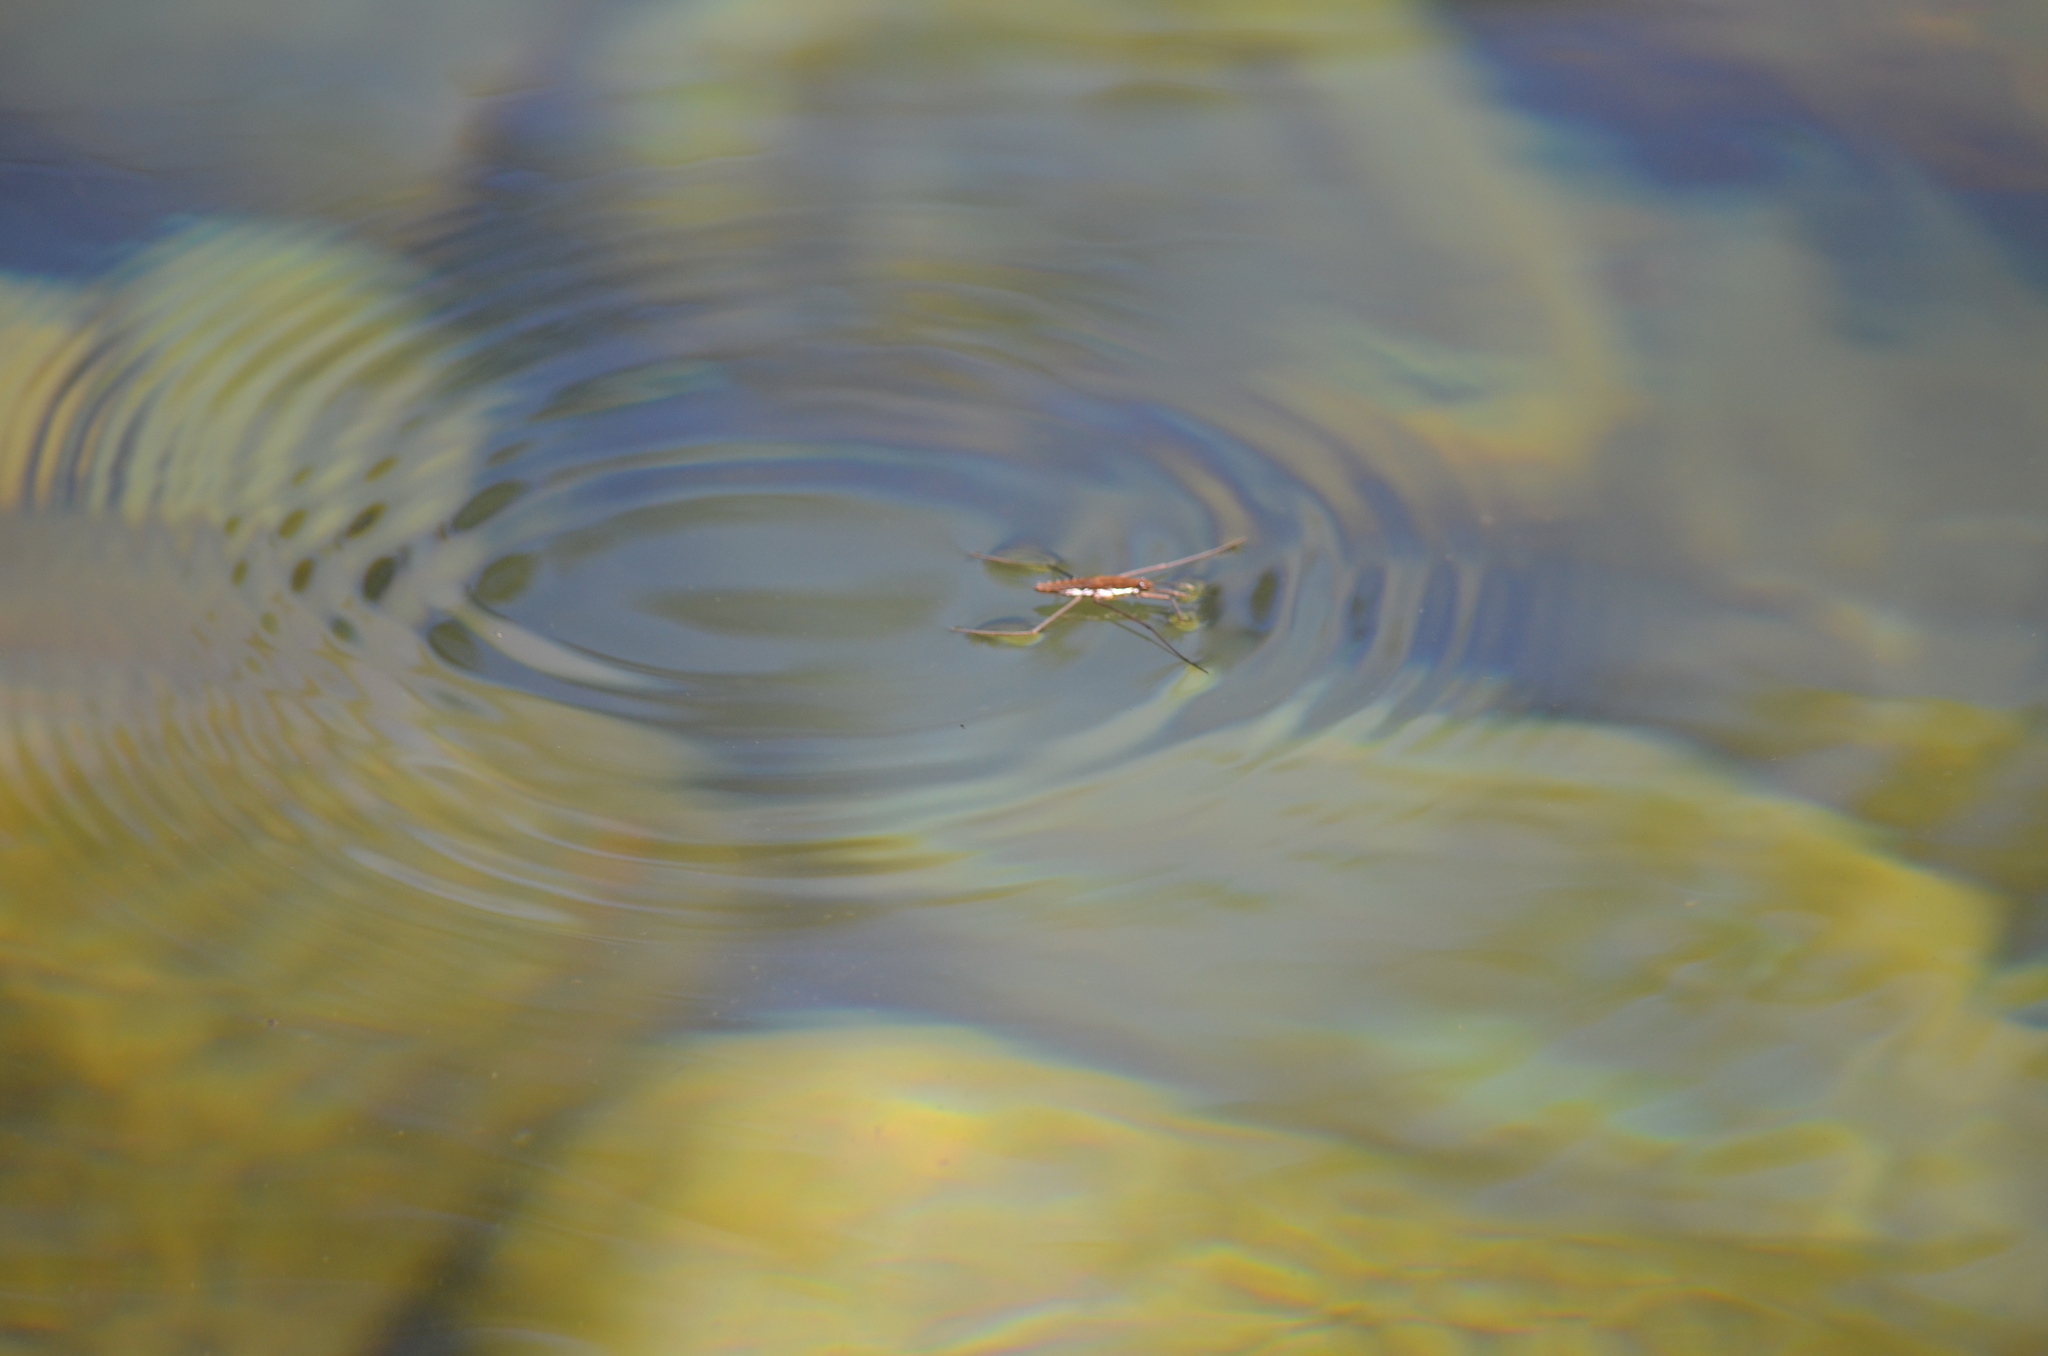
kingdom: Animalia
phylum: Arthropoda
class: Insecta
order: Hemiptera
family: Gerridae
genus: Aquarius
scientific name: Aquarius remigis
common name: Common water strider
